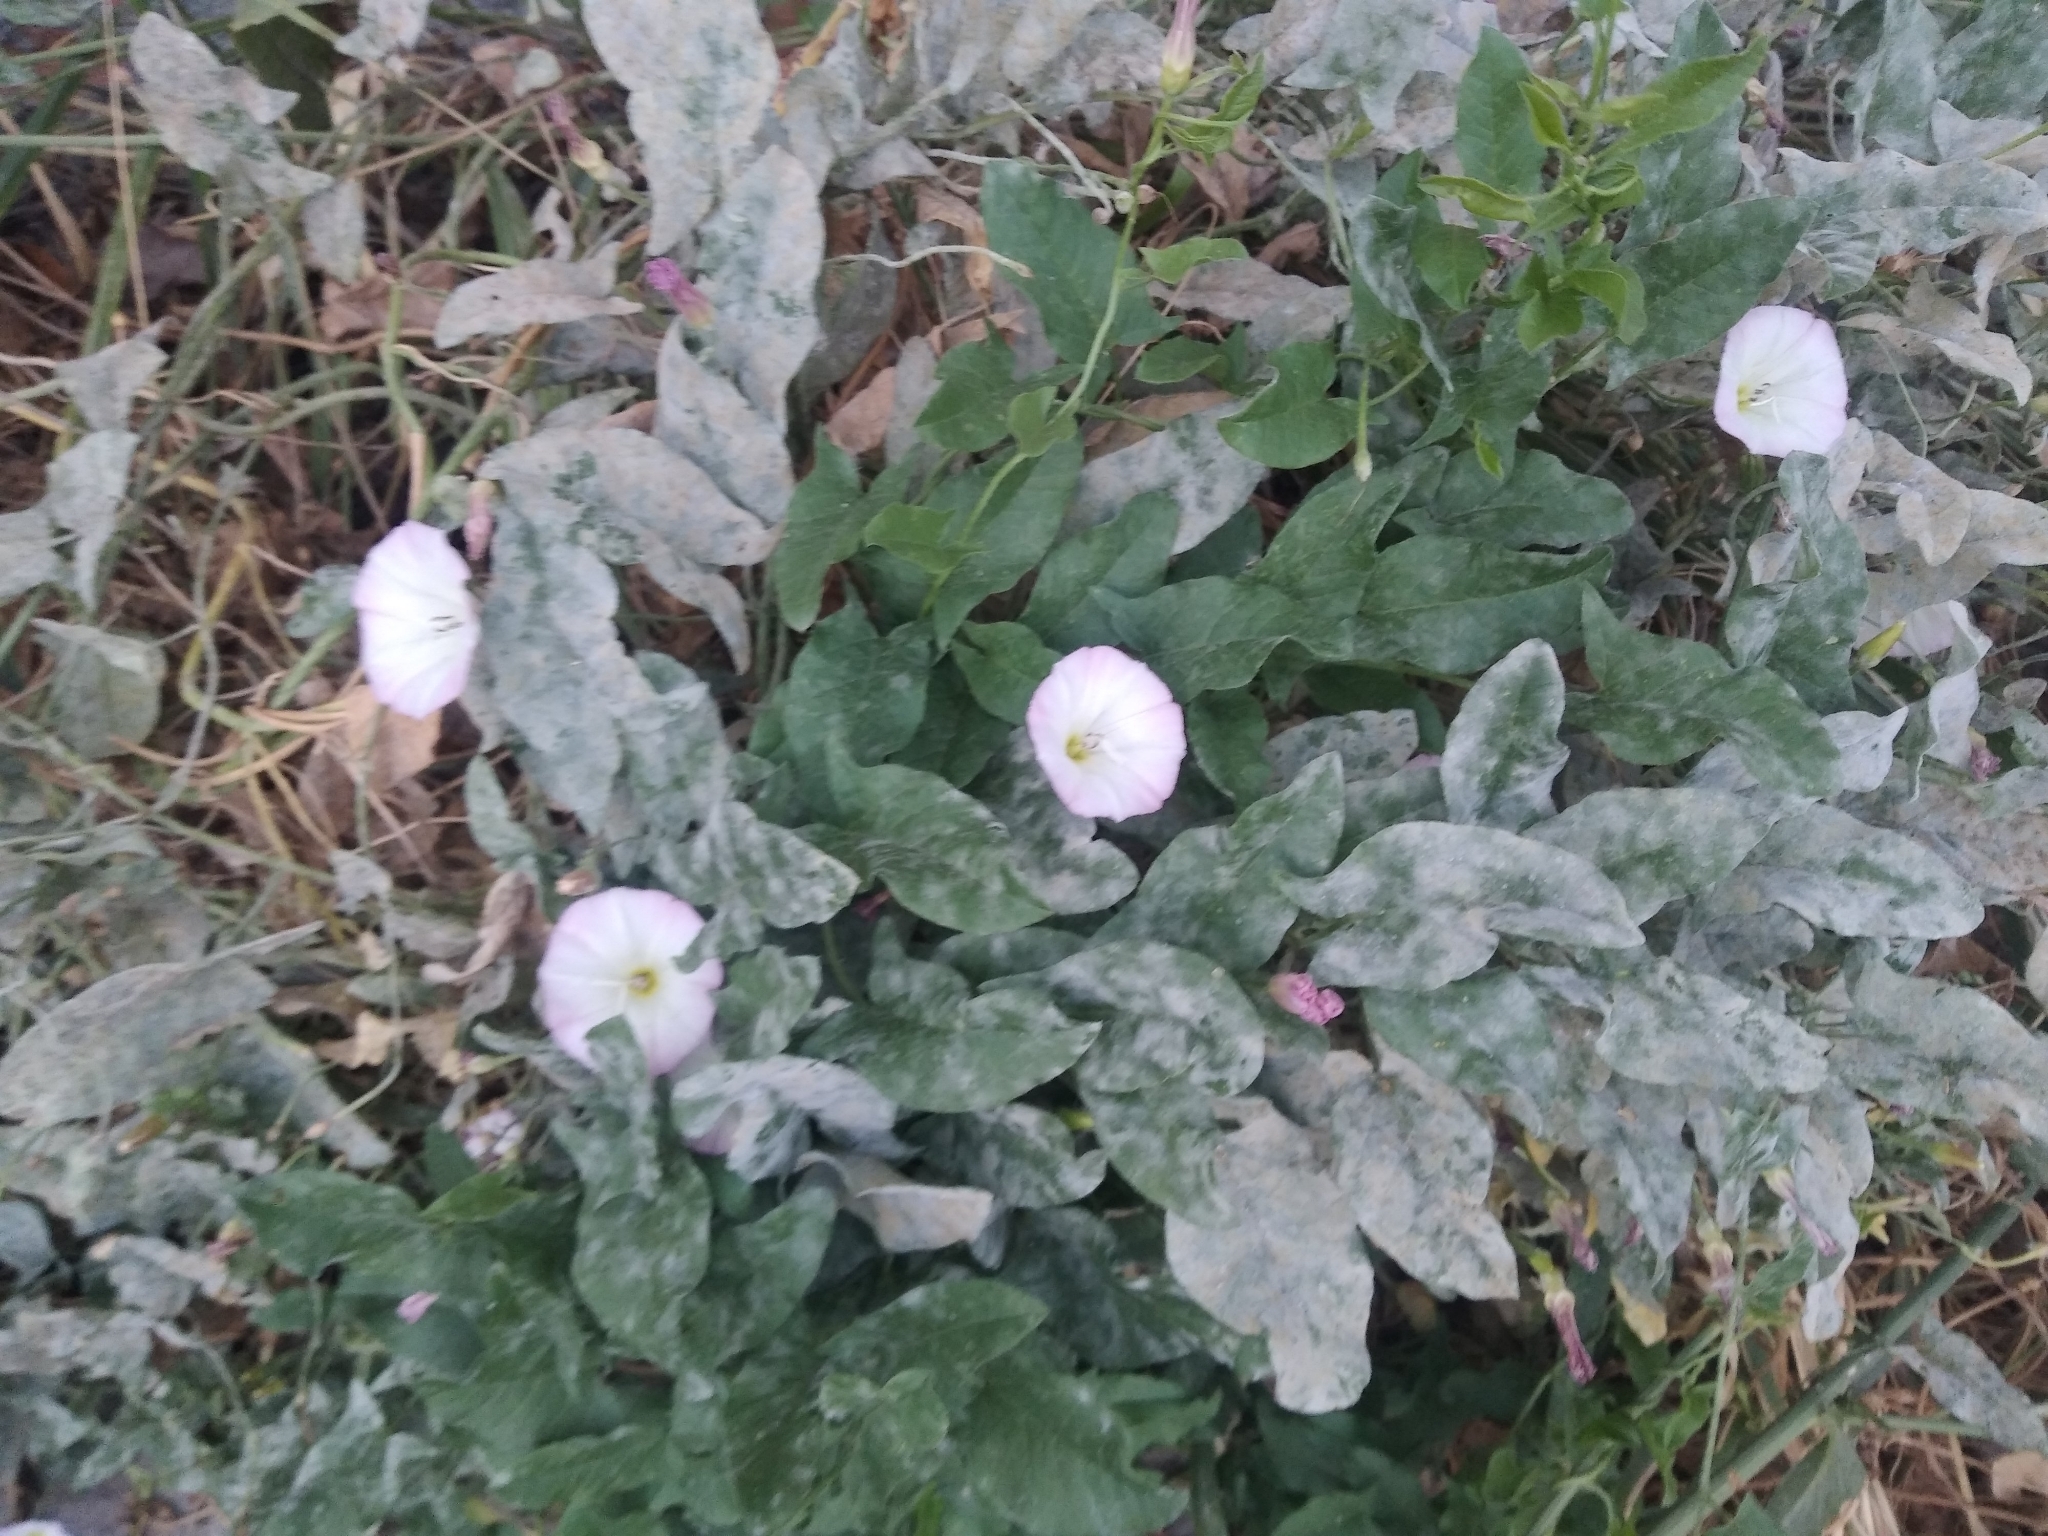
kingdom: Plantae
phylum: Tracheophyta
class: Magnoliopsida
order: Solanales
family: Convolvulaceae
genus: Convolvulus
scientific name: Convolvulus arvensis
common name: Field bindweed
